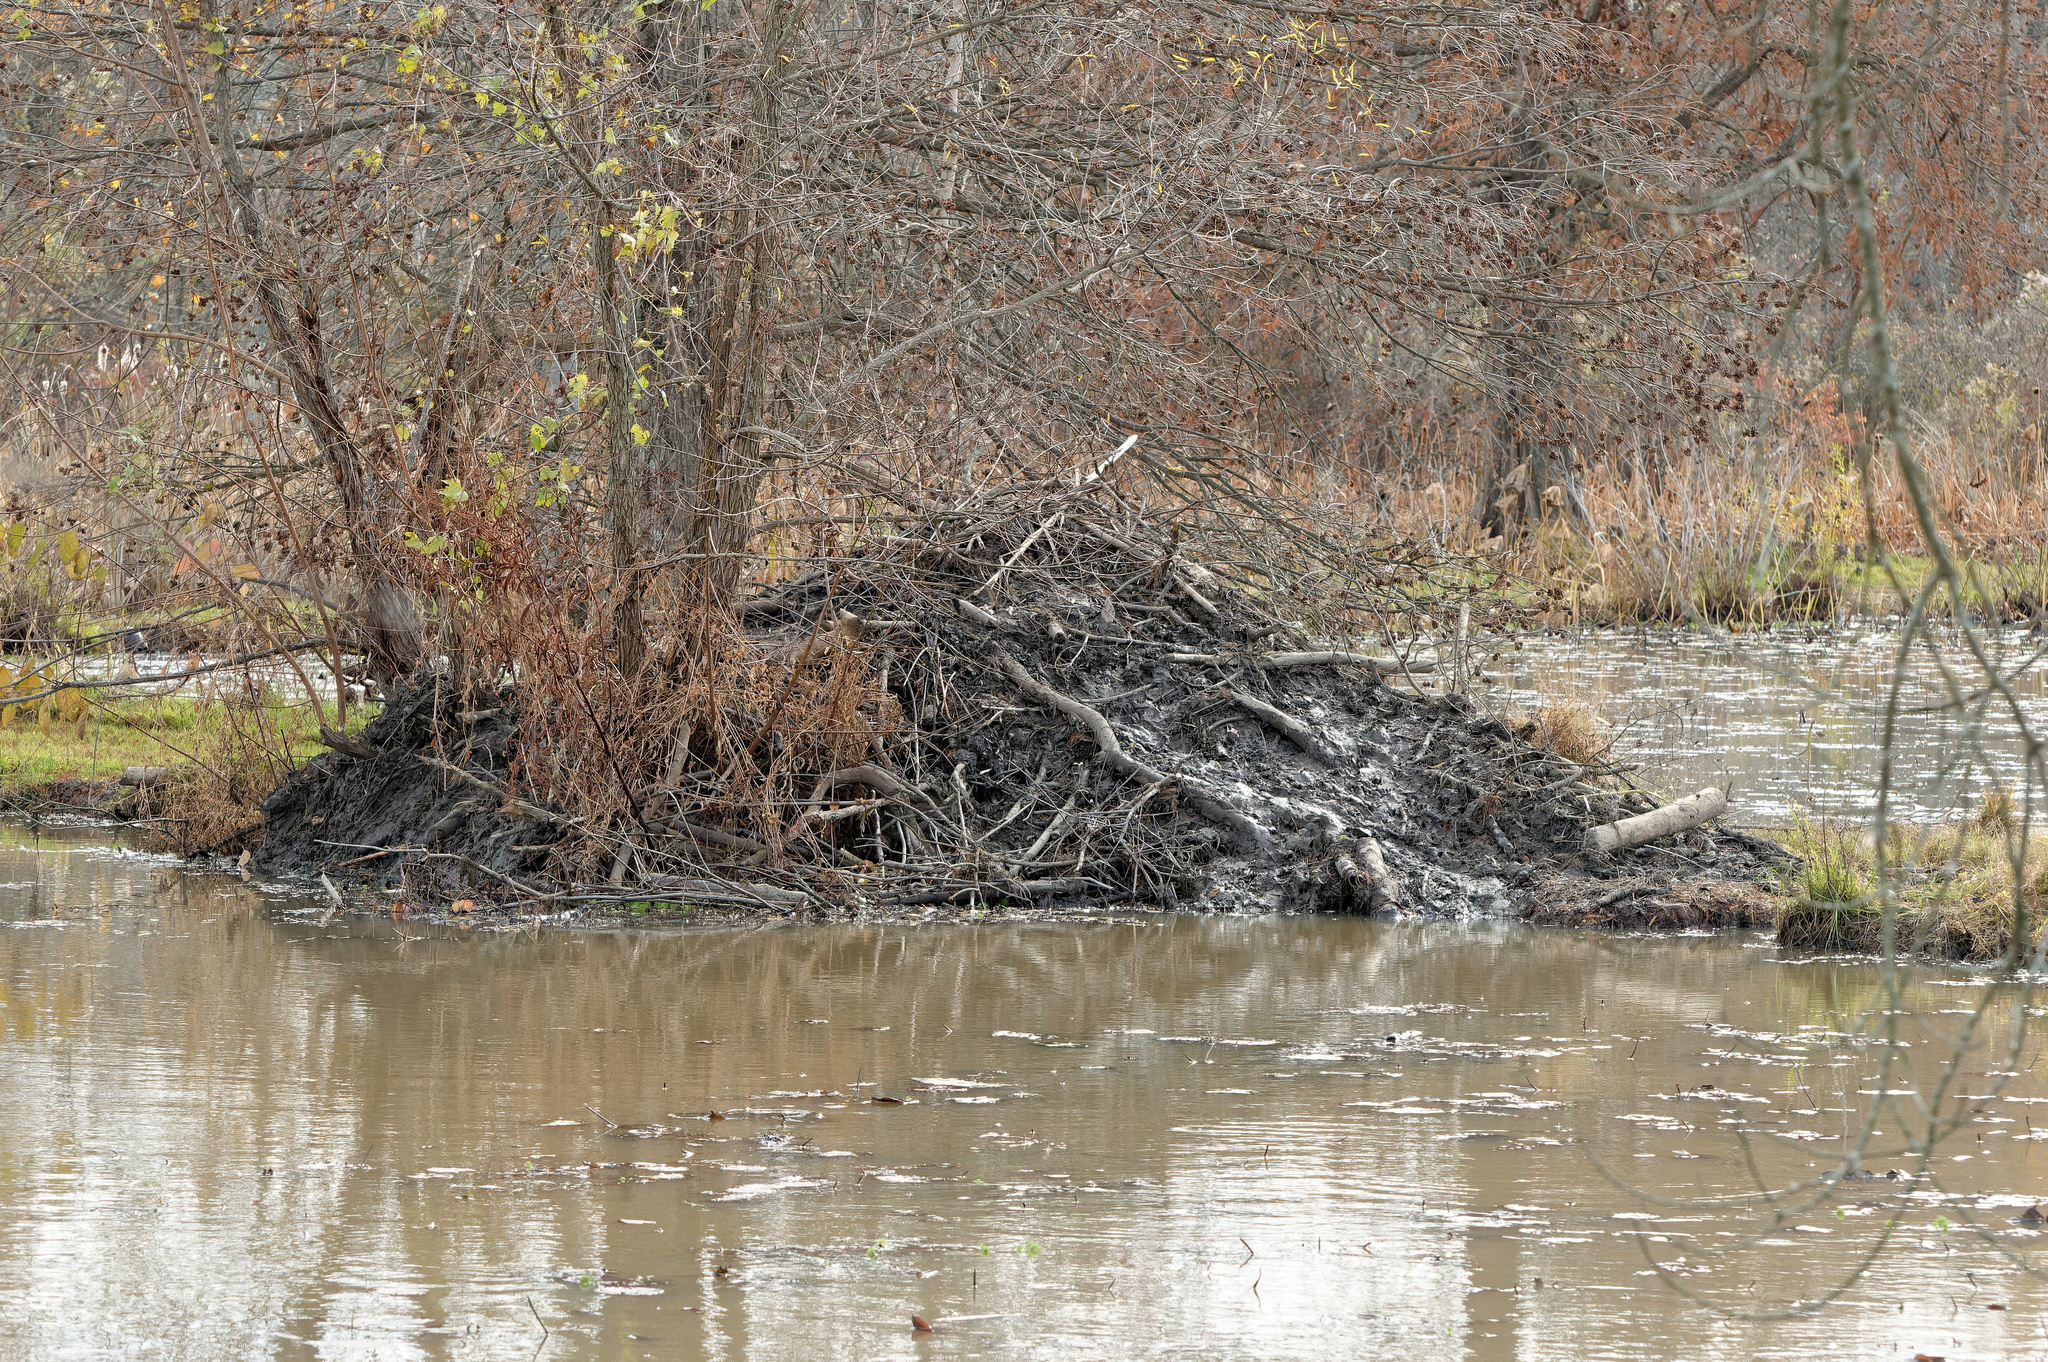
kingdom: Animalia
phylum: Chordata
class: Mammalia
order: Rodentia
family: Castoridae
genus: Castor
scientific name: Castor canadensis
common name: American beaver
